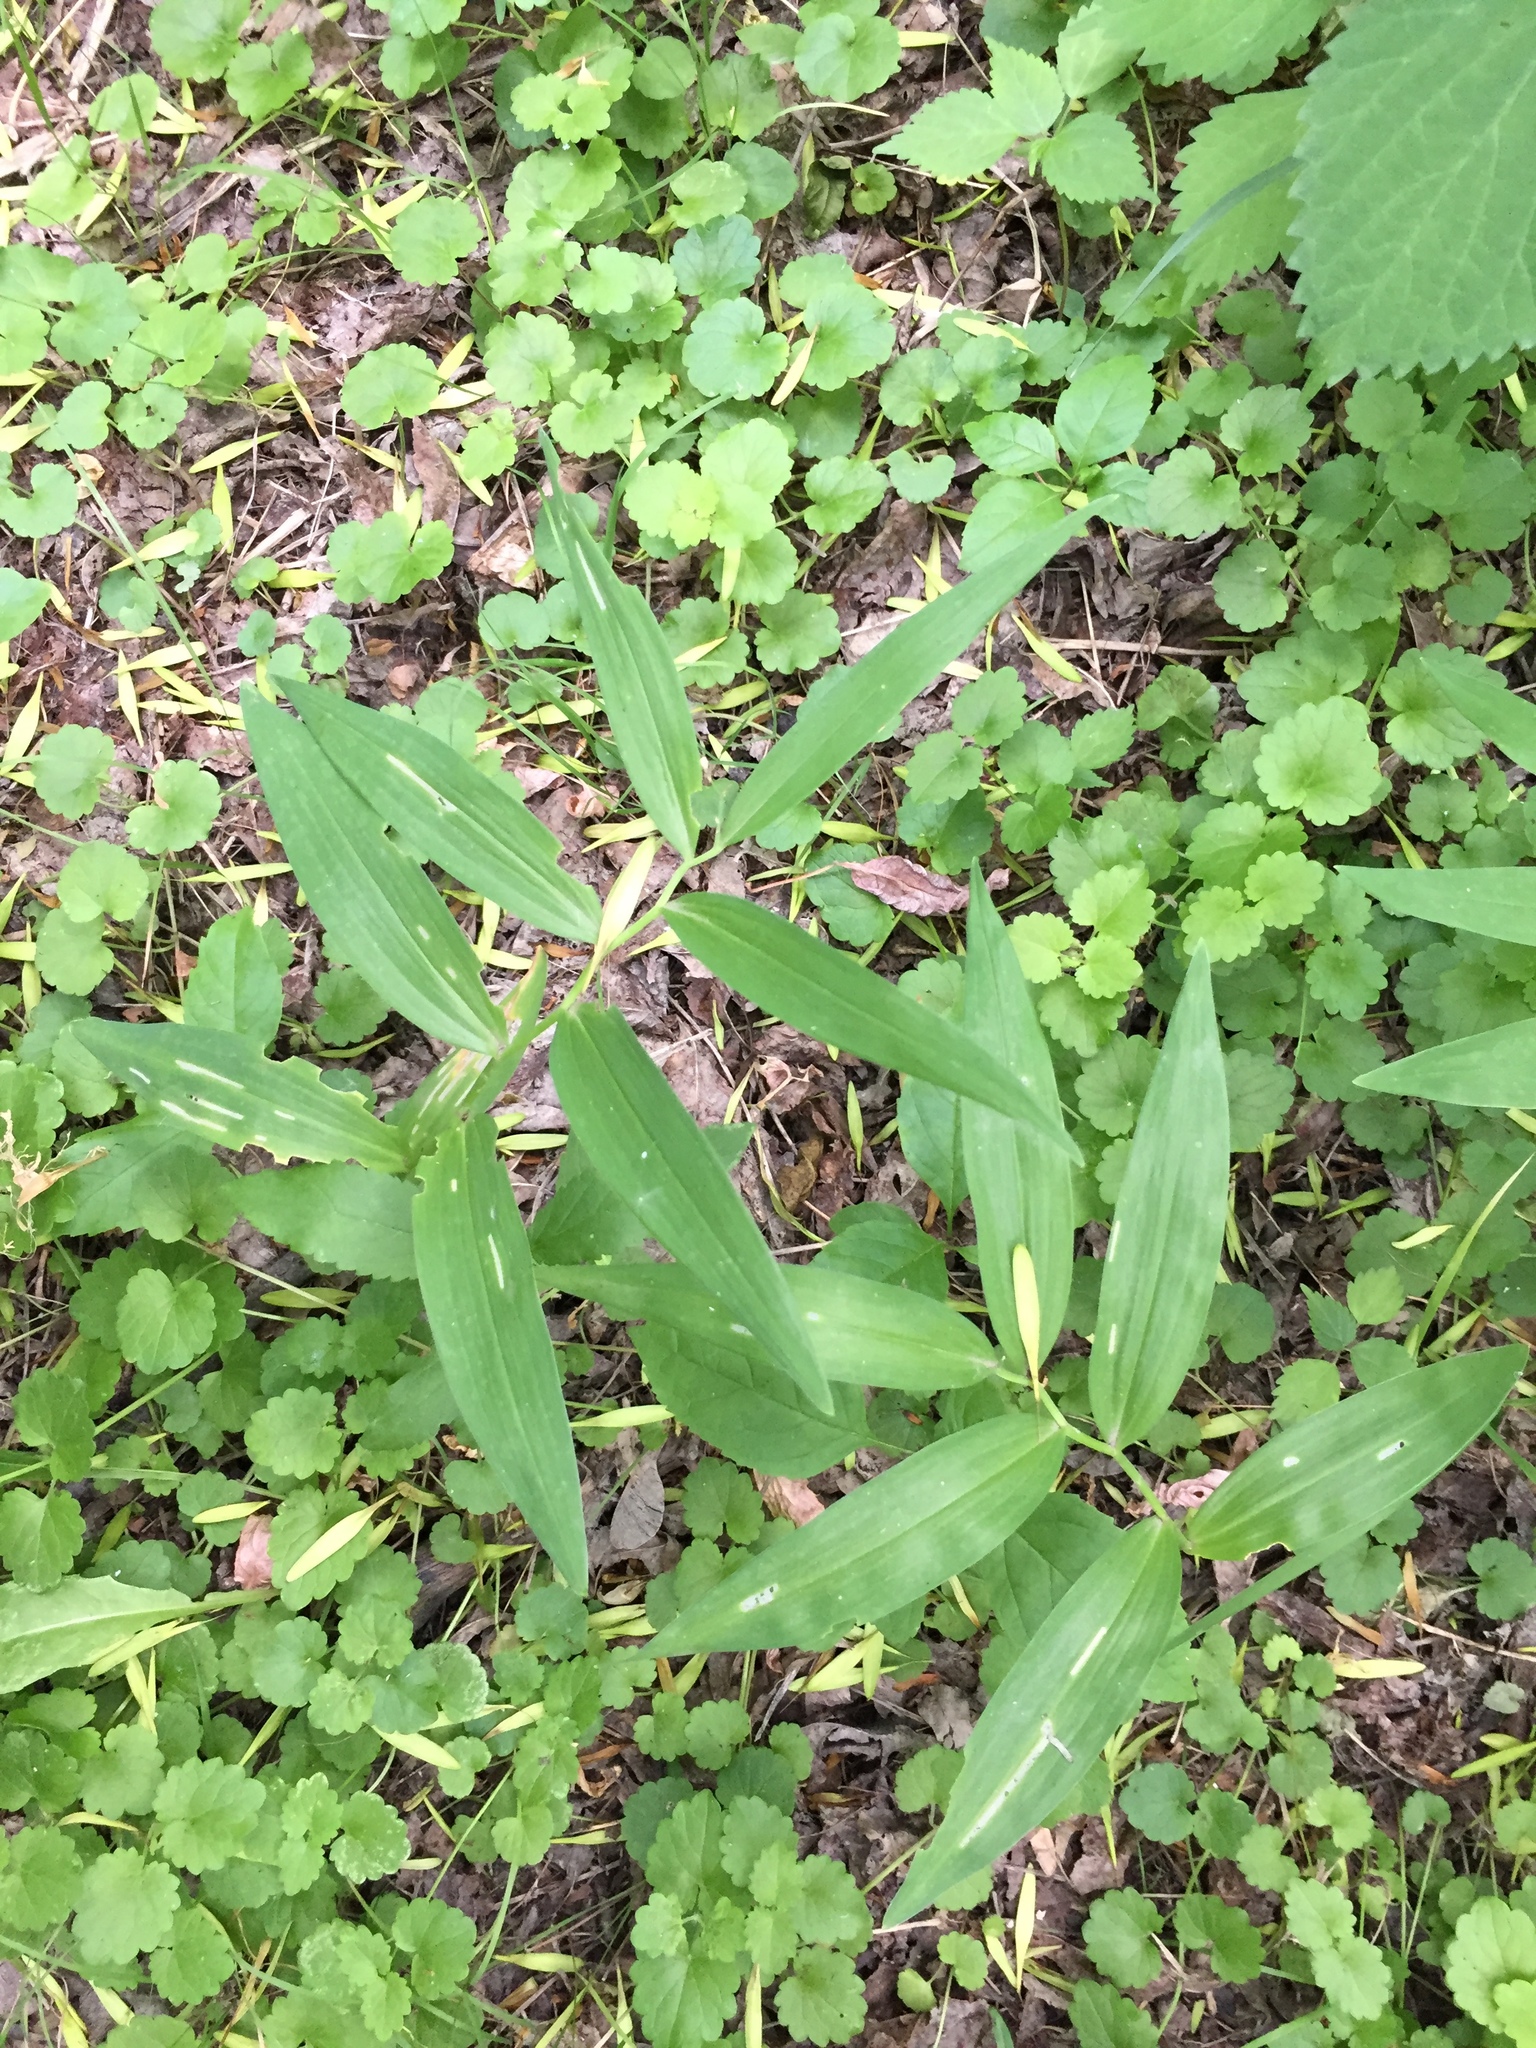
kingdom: Plantae
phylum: Tracheophyta
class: Liliopsida
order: Asparagales
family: Asparagaceae
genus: Maianthemum
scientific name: Maianthemum stellatum
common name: Little false solomon's seal
